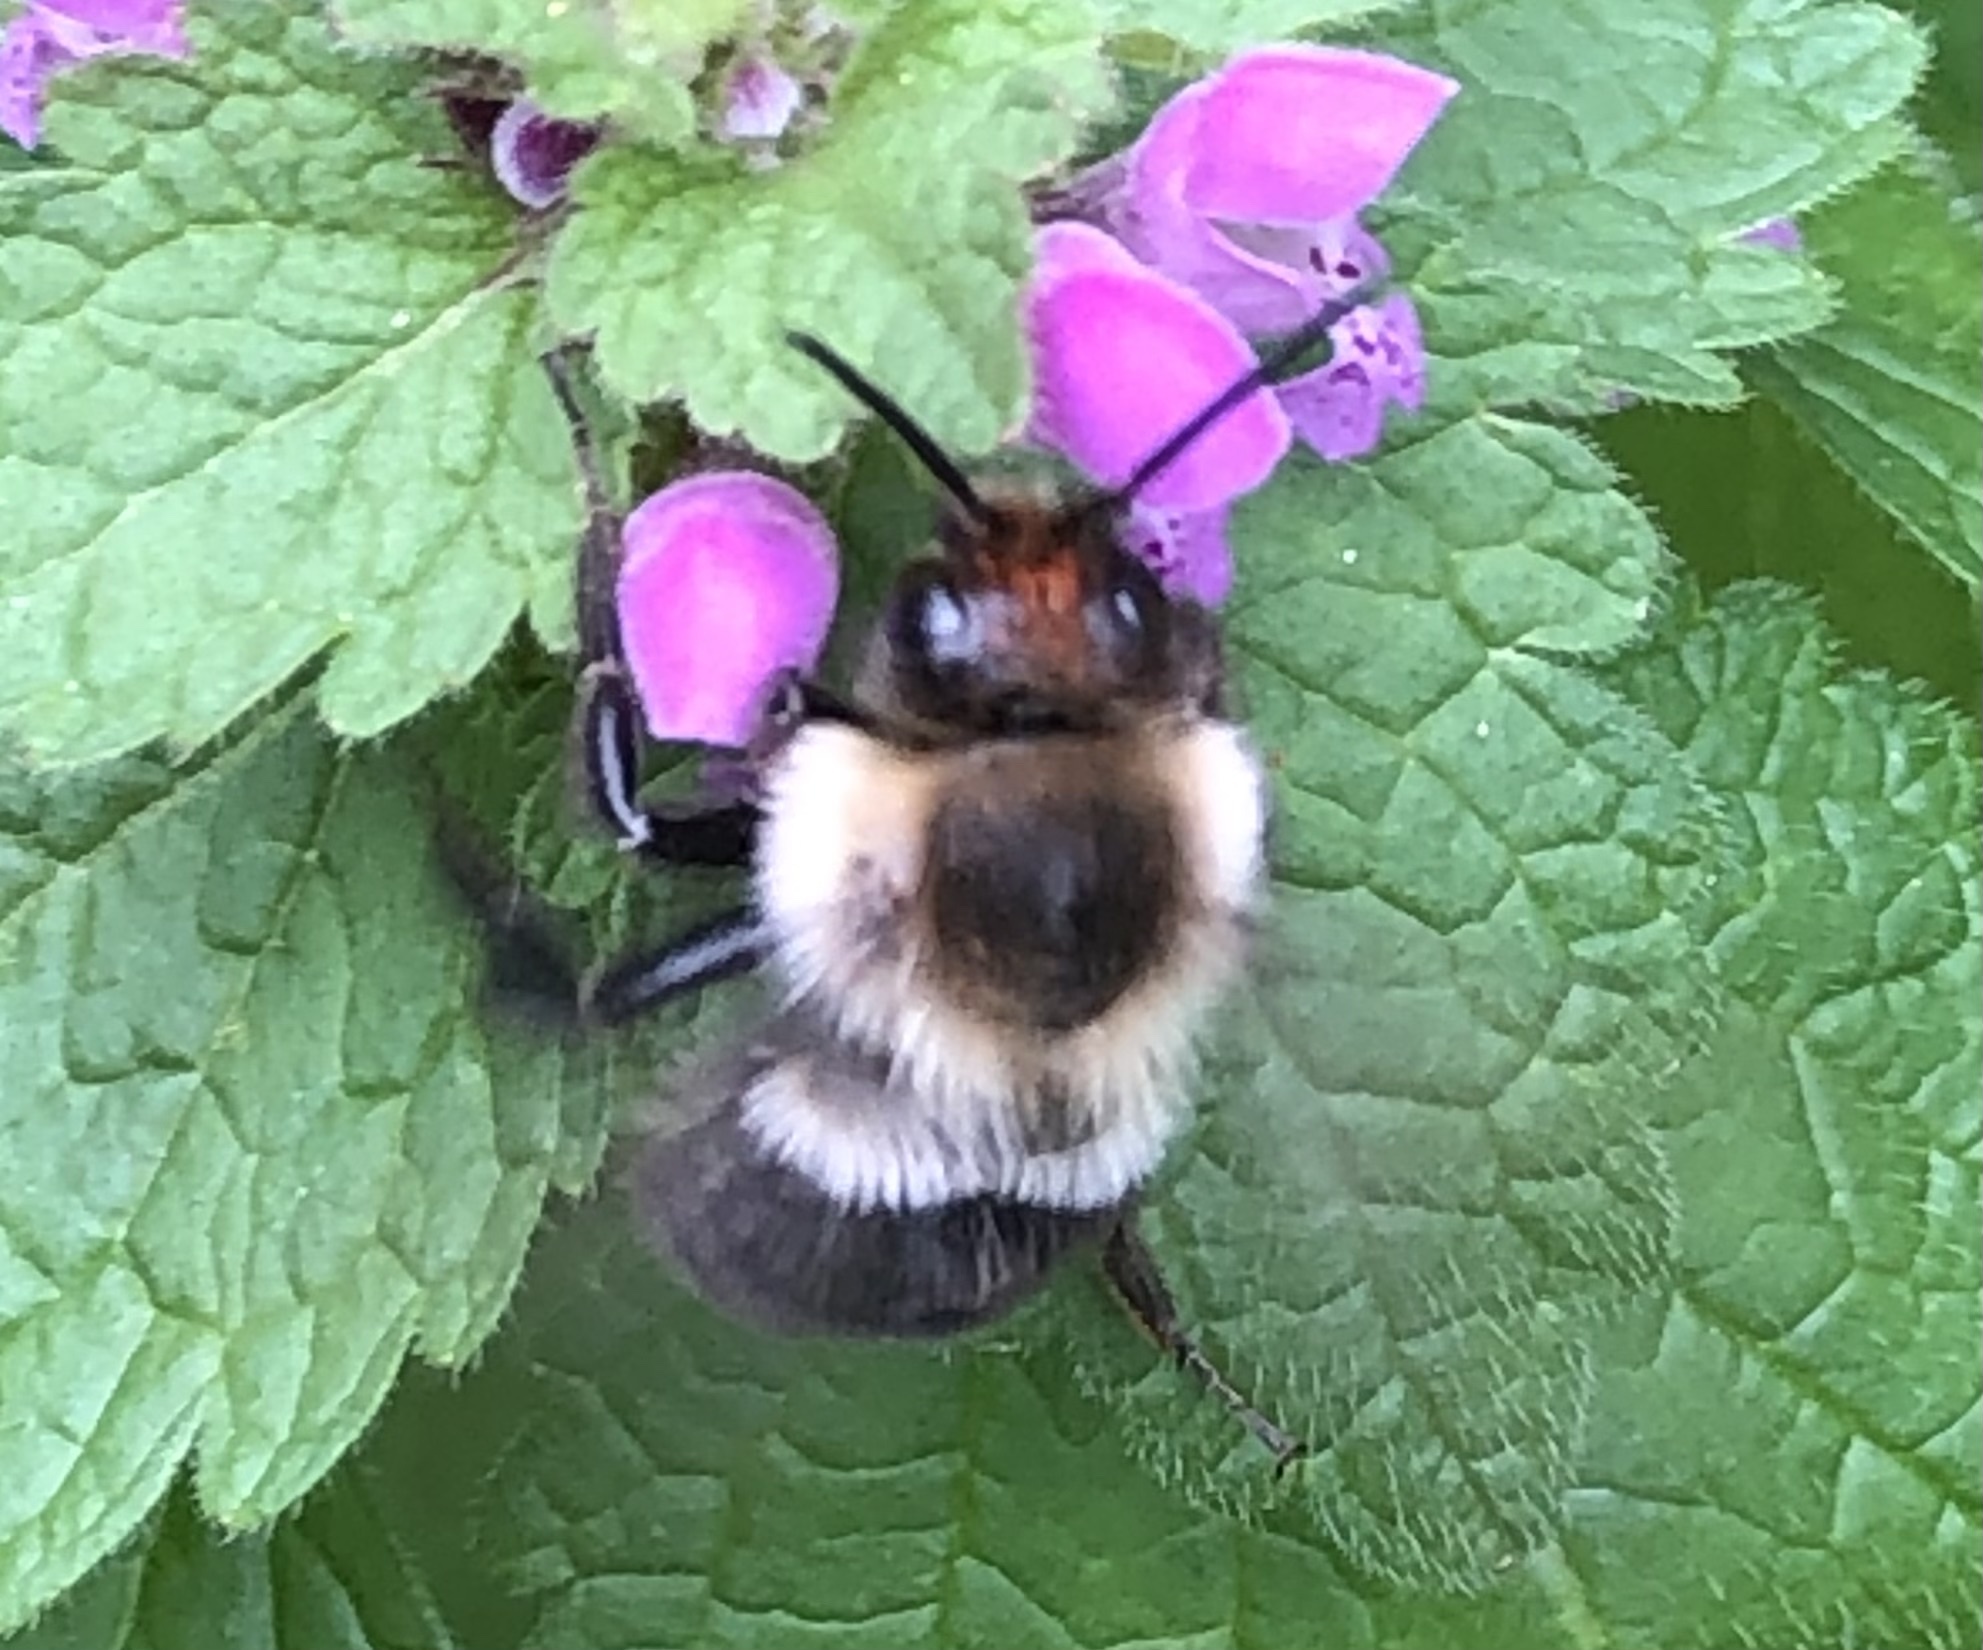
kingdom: Animalia
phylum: Arthropoda
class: Insecta
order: Hymenoptera
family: Apidae
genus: Bombus
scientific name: Bombus impatiens
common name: Common eastern bumble bee
